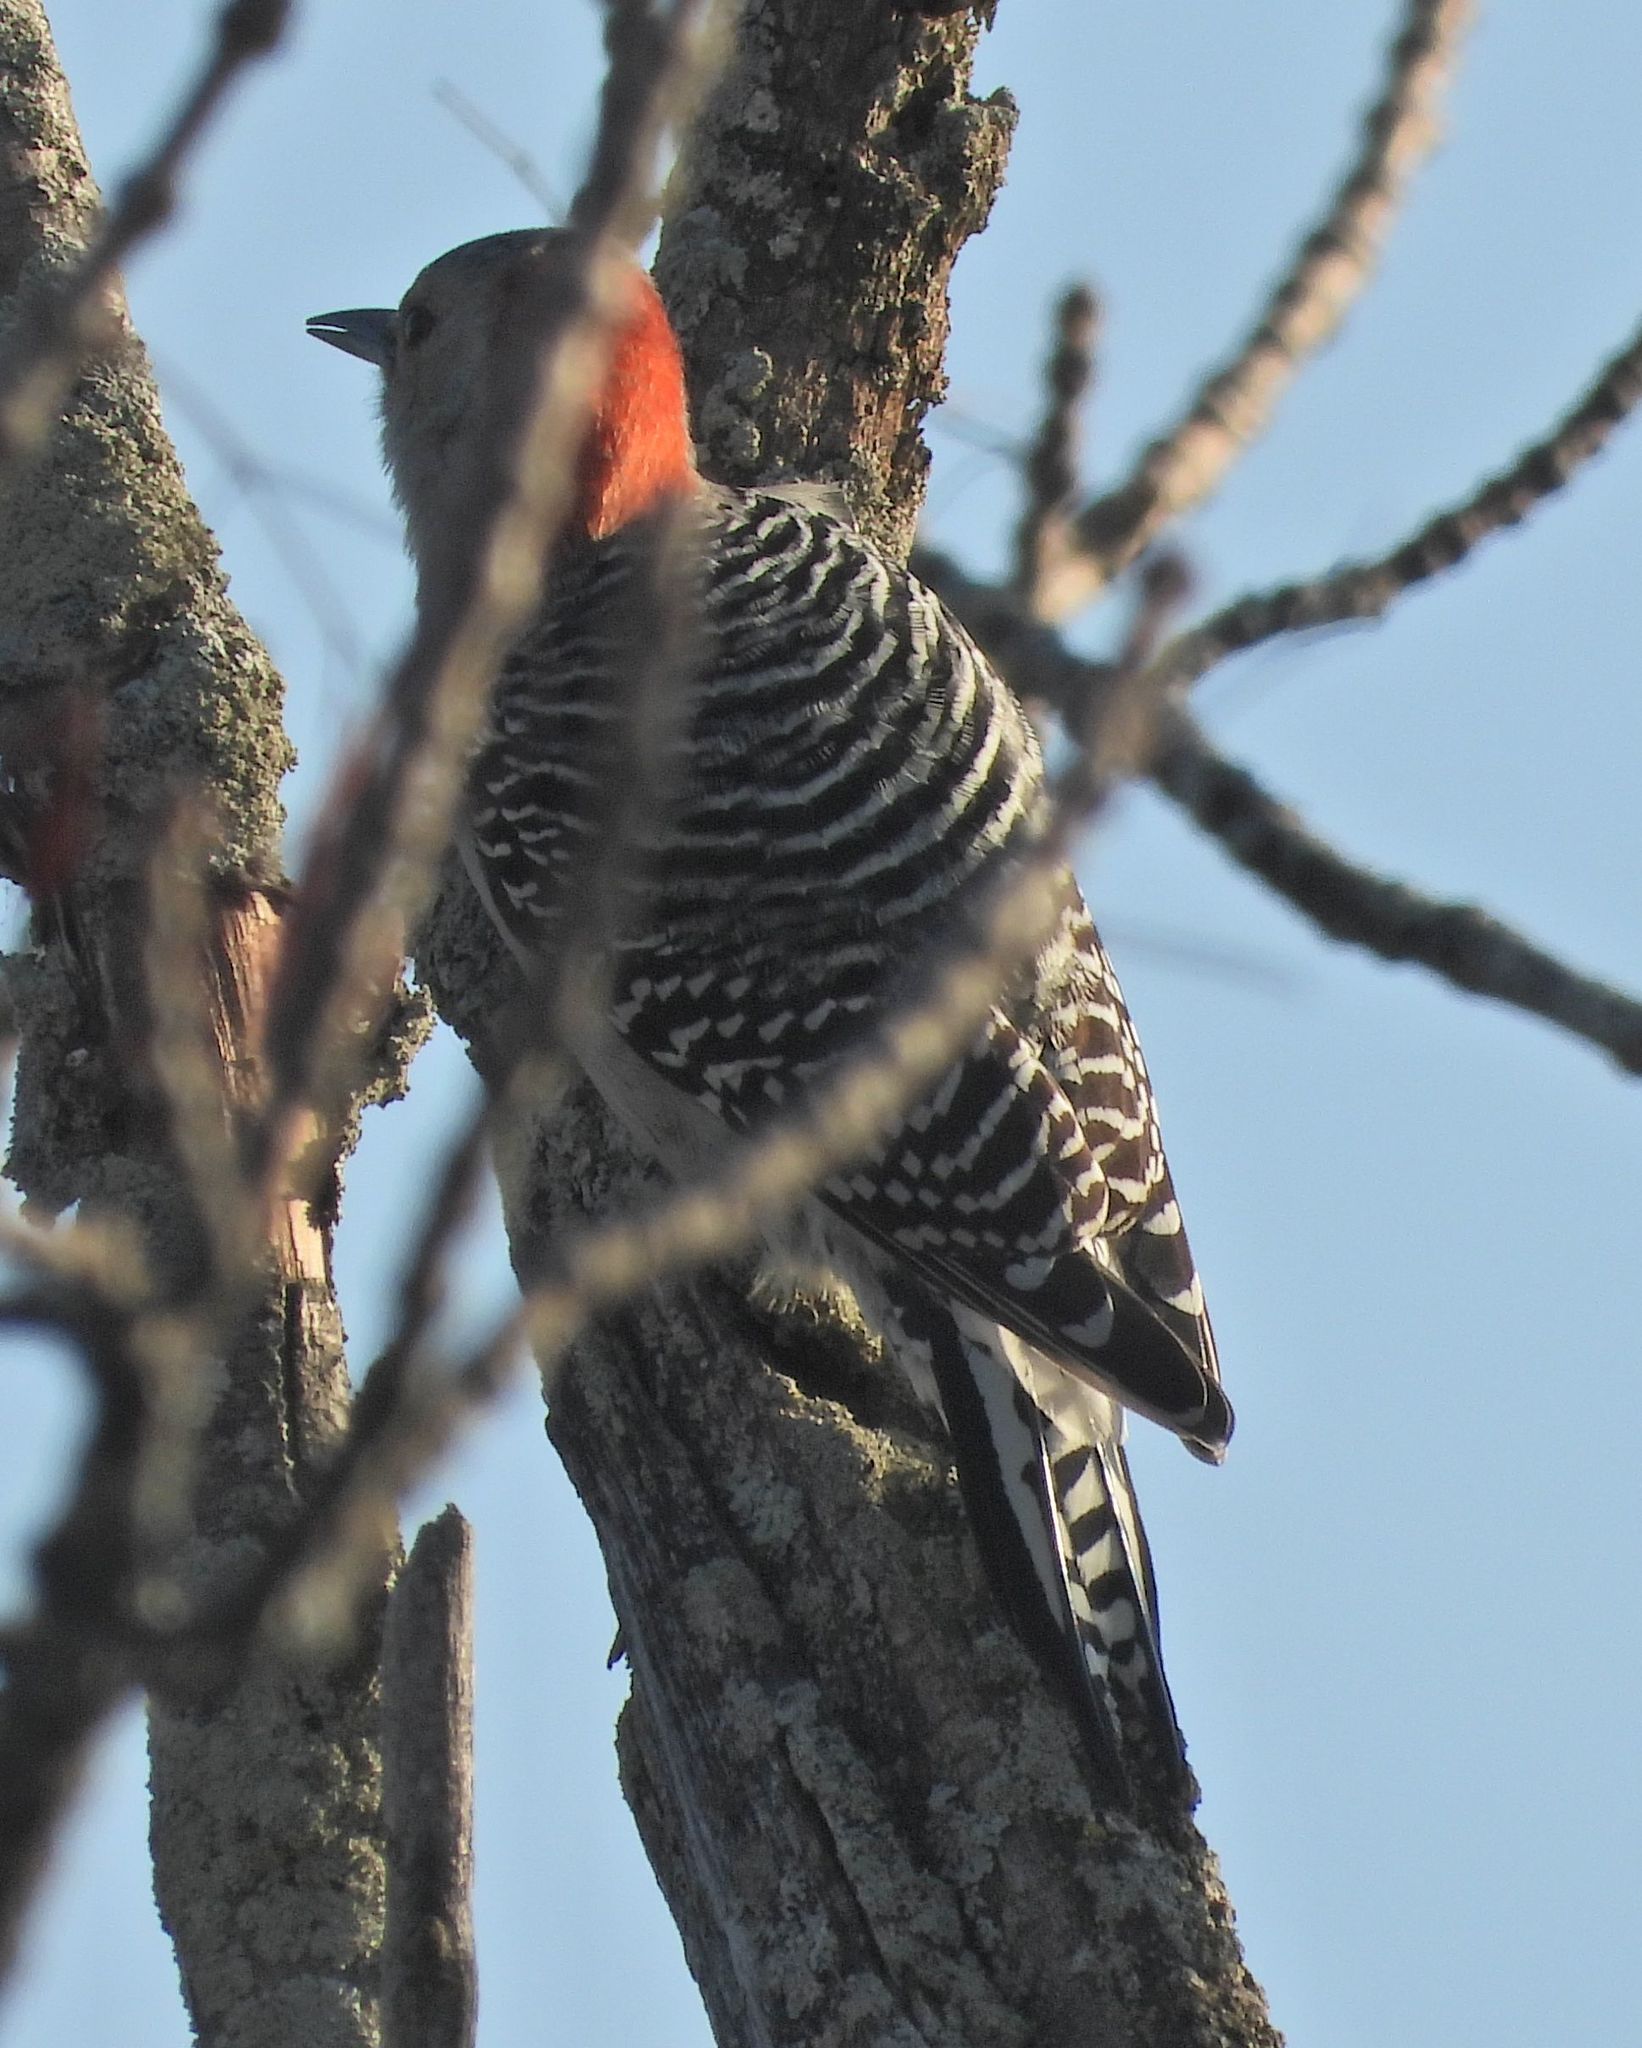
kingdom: Animalia
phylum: Chordata
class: Aves
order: Piciformes
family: Picidae
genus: Melanerpes
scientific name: Melanerpes carolinus
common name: Red-bellied woodpecker
